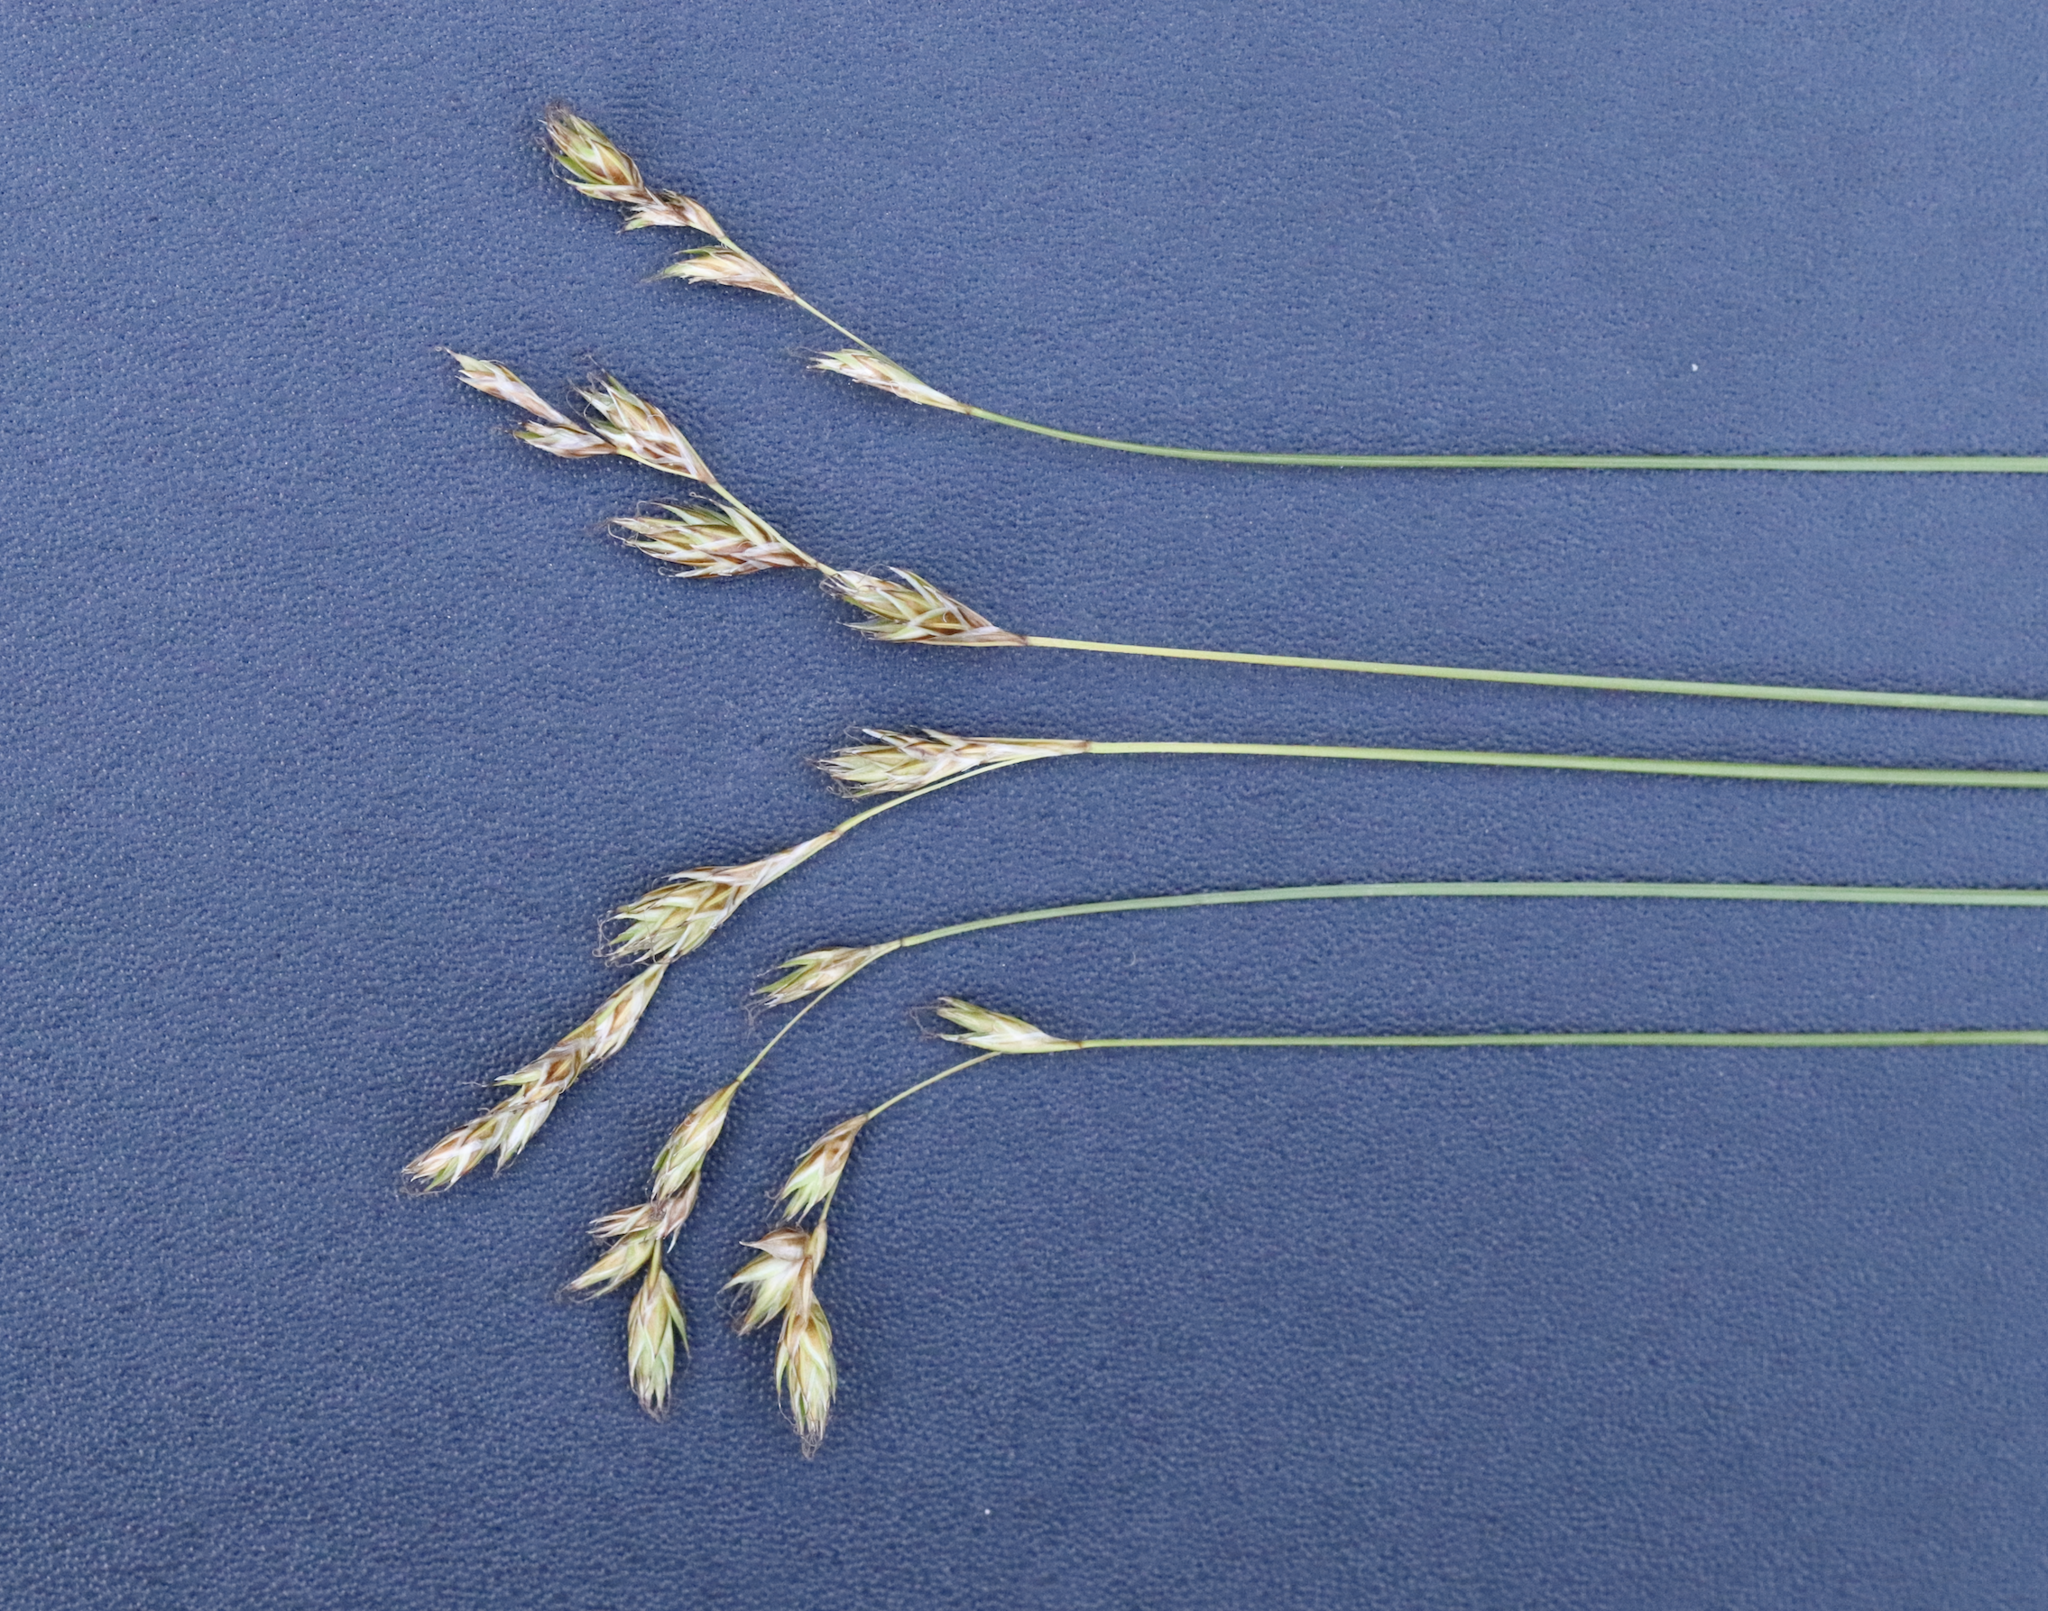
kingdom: Plantae
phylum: Tracheophyta
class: Liliopsida
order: Poales
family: Cyperaceae
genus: Carex
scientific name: Carex praticola
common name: Large-fruited oval sedge
